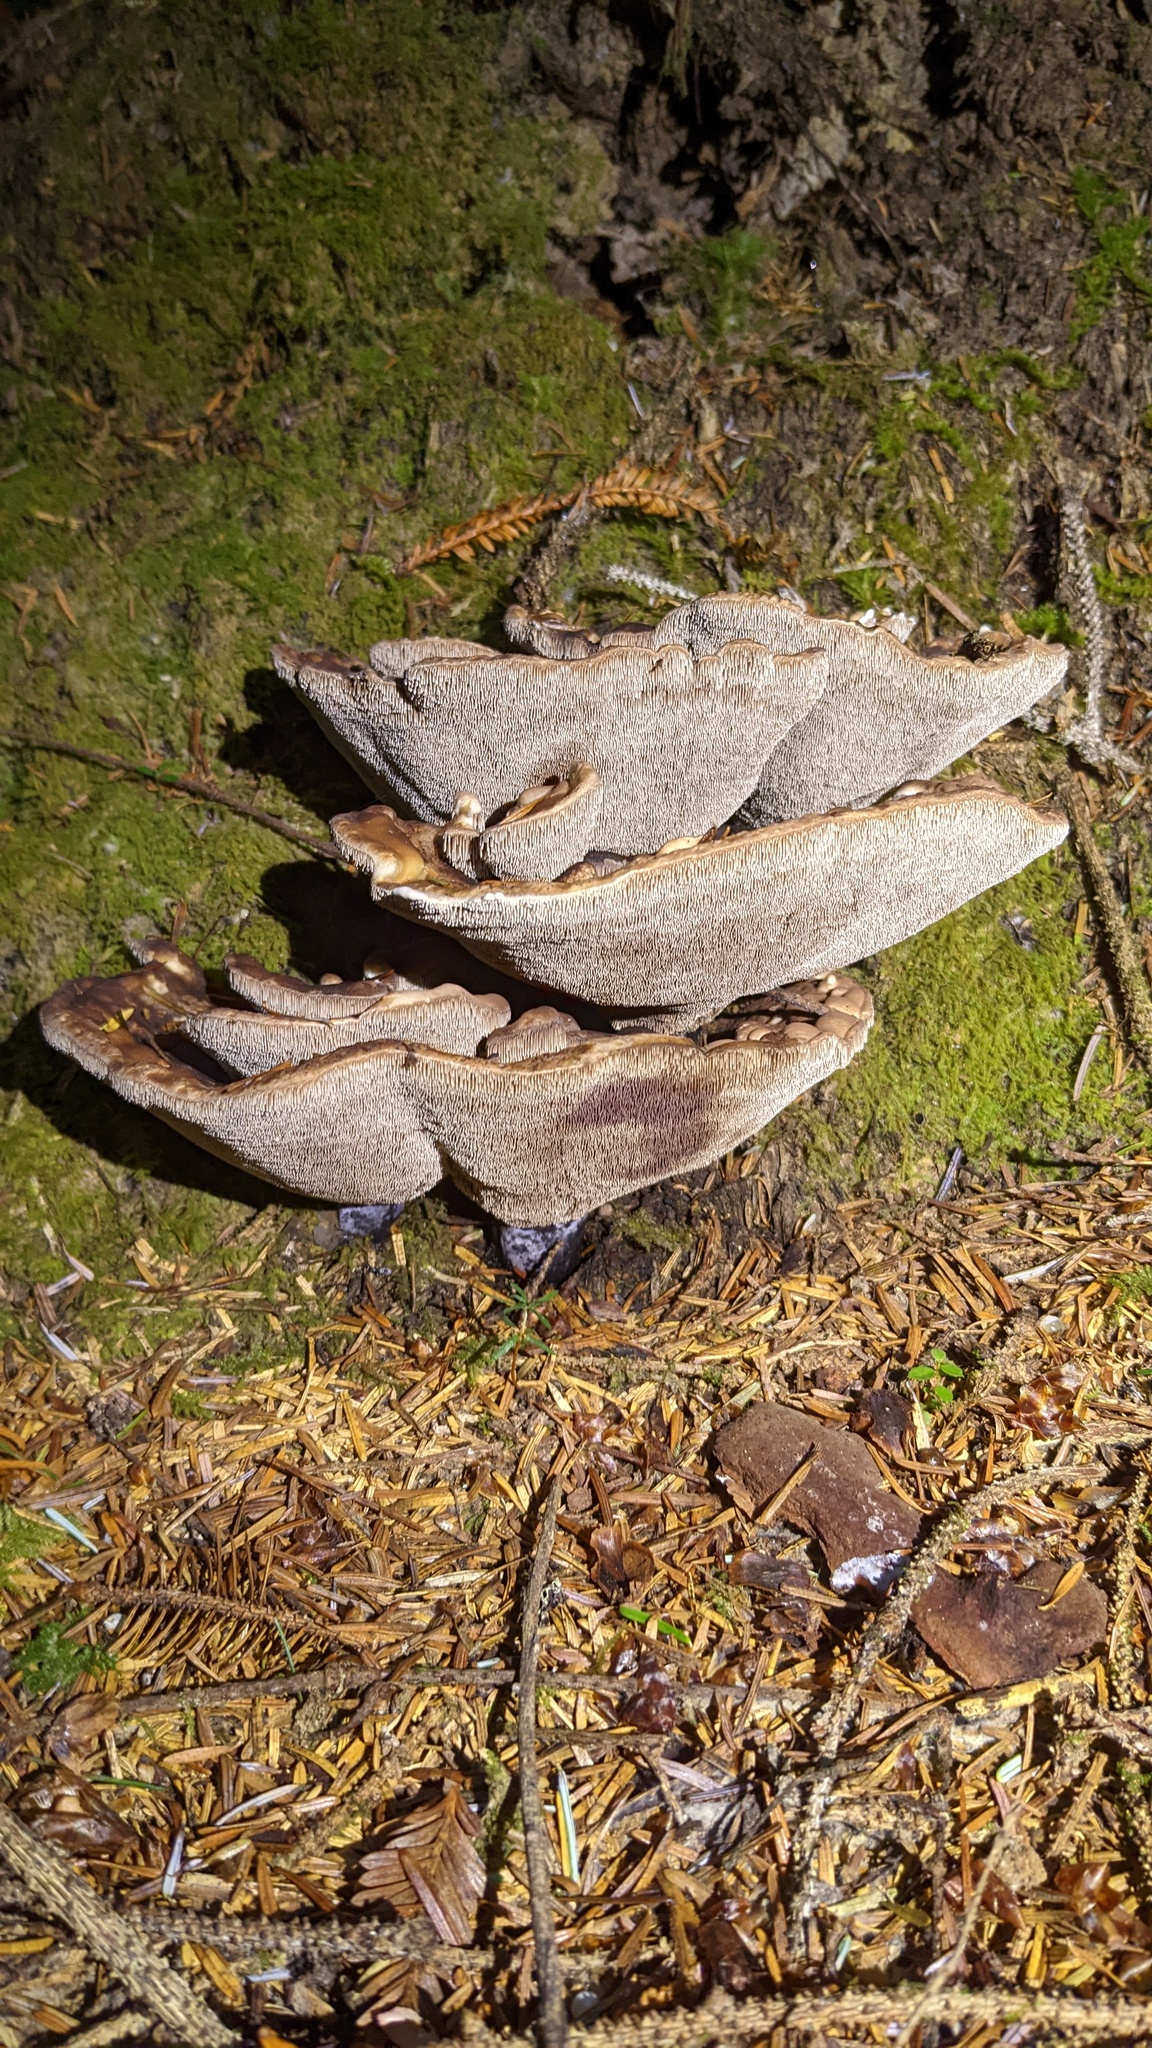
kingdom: Fungi
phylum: Basidiomycota
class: Agaricomycetes
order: Thelephorales
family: Bankeraceae
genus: Hydnellum
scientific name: Hydnellum suaveolens
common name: Sweetgrass hydnellum
